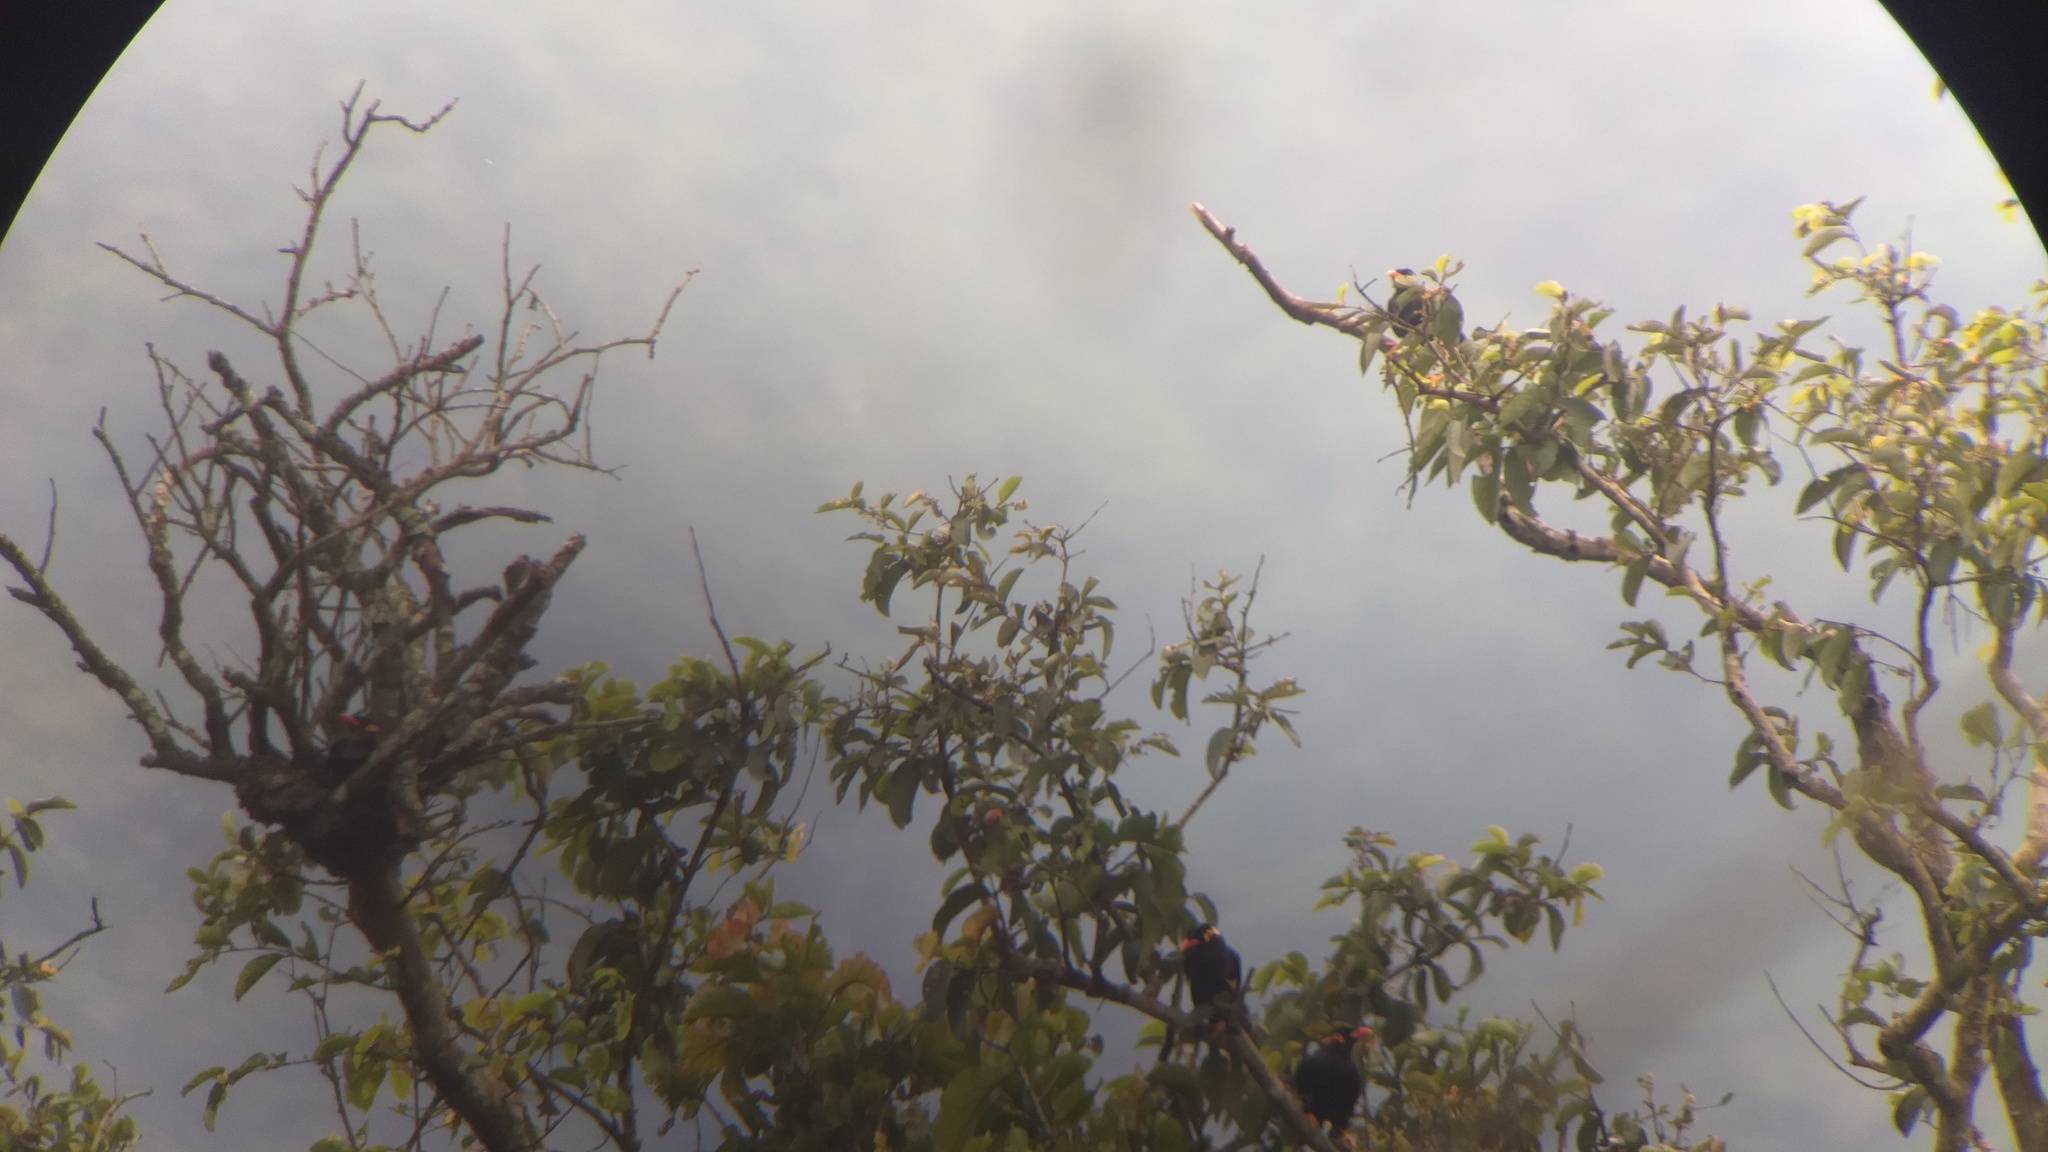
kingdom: Animalia
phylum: Chordata
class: Aves
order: Passeriformes
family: Sturnidae
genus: Gracula
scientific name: Gracula religiosa
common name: Common hill myna
